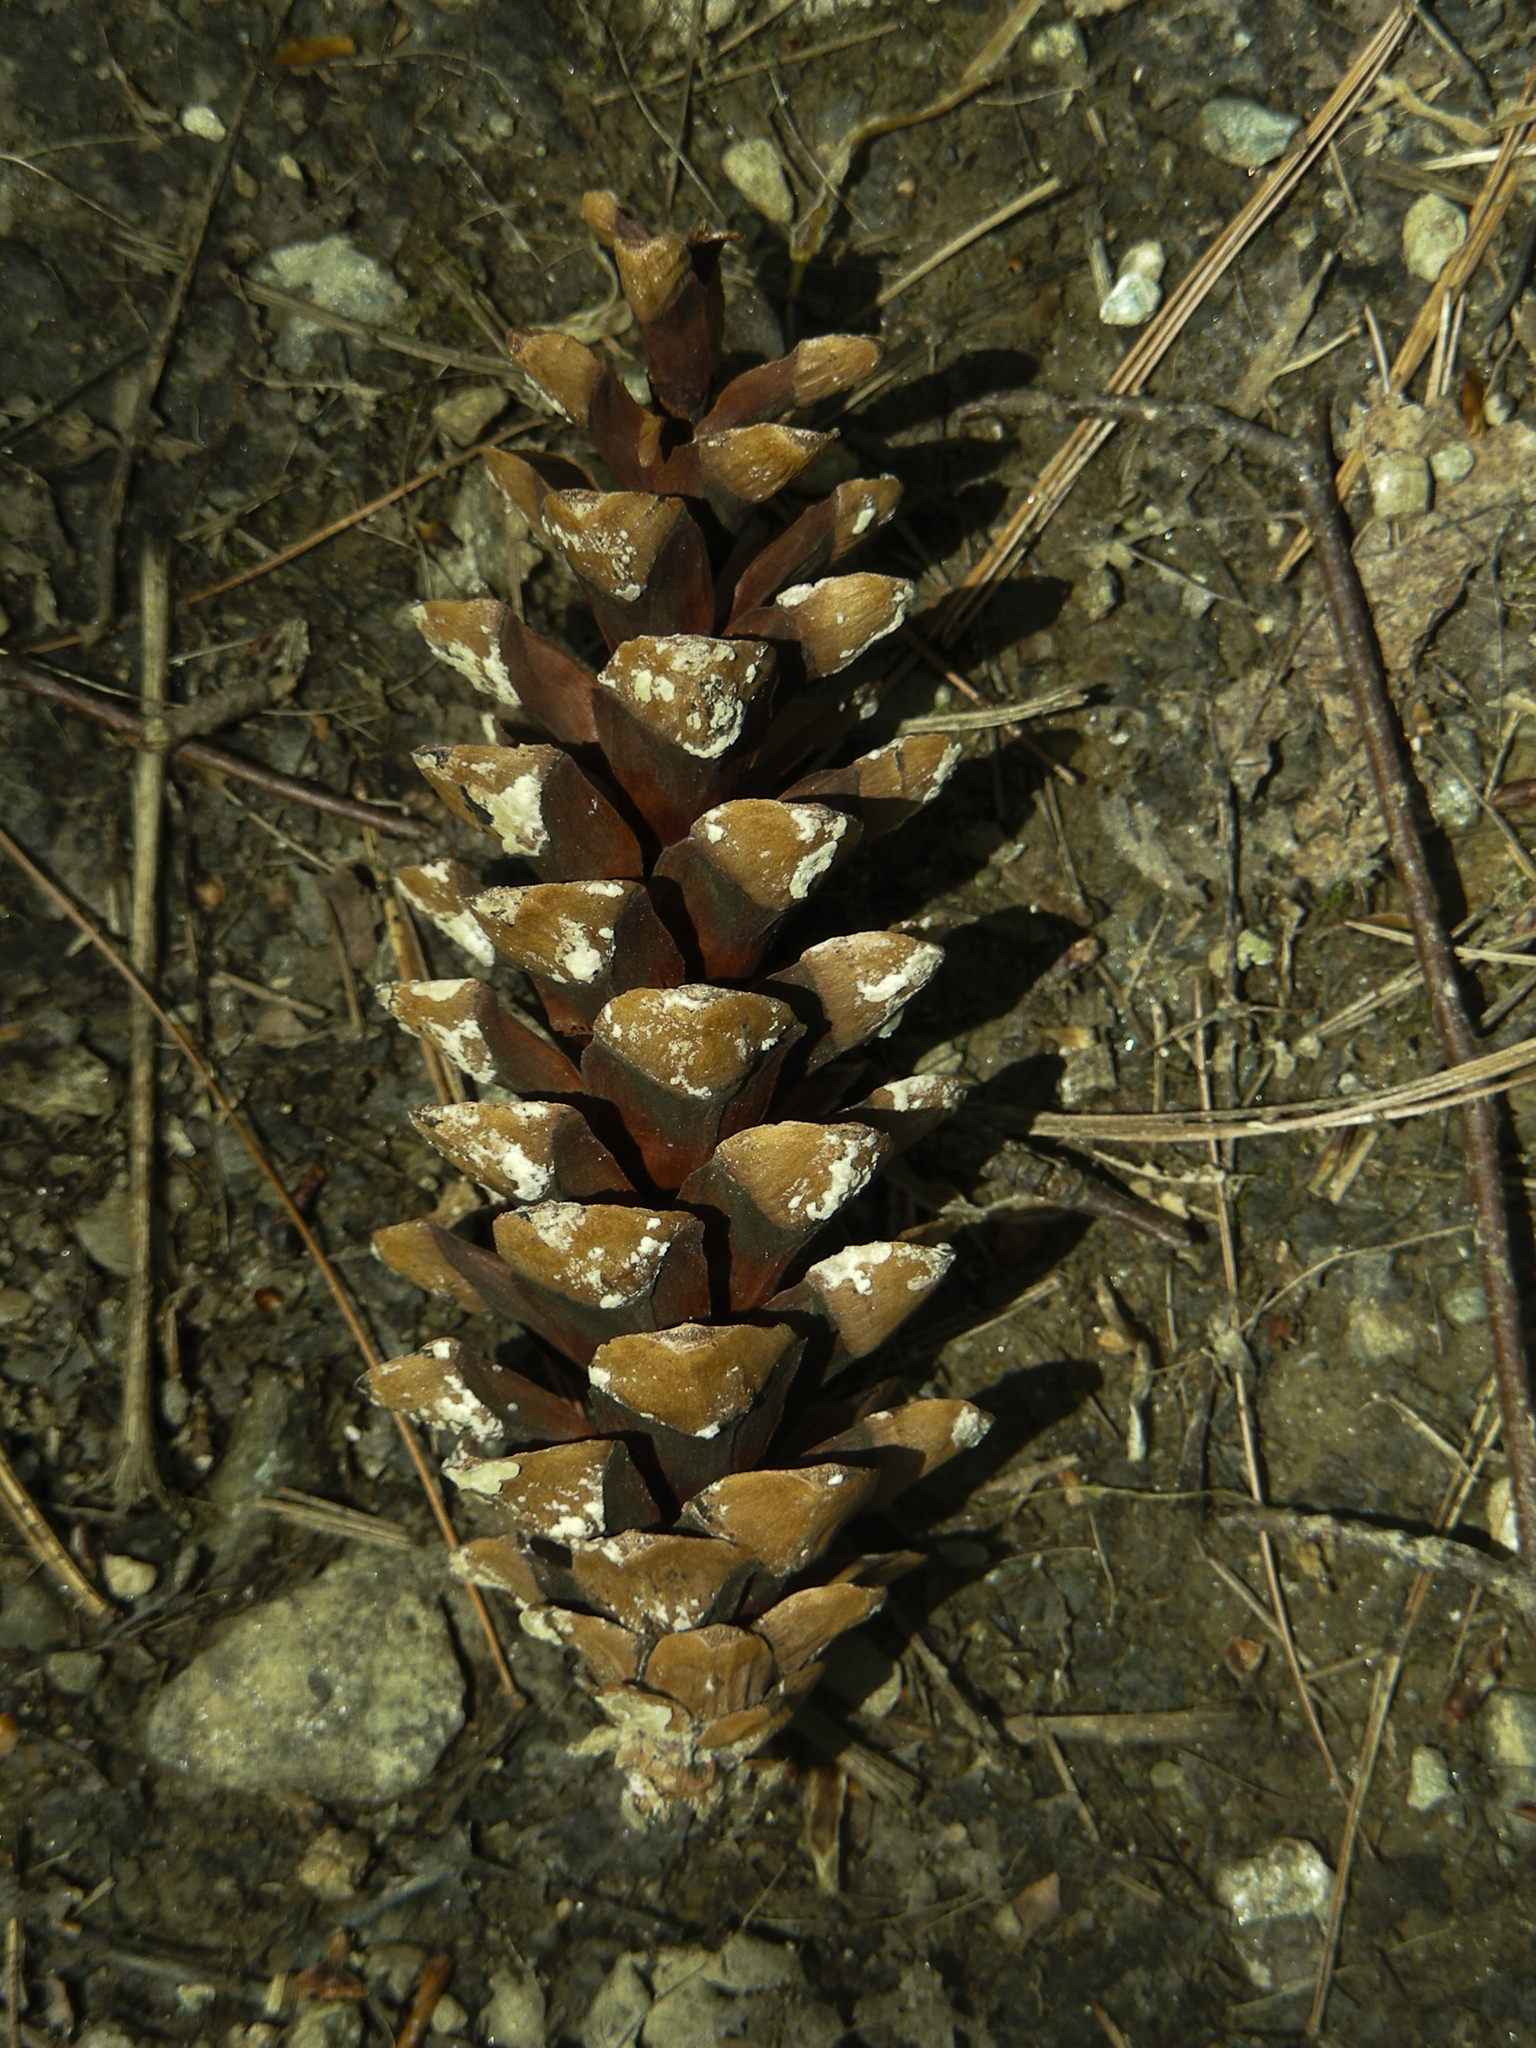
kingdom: Plantae
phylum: Tracheophyta
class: Pinopsida
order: Pinales
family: Pinaceae
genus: Pinus
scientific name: Pinus strobus
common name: Weymouth pine
